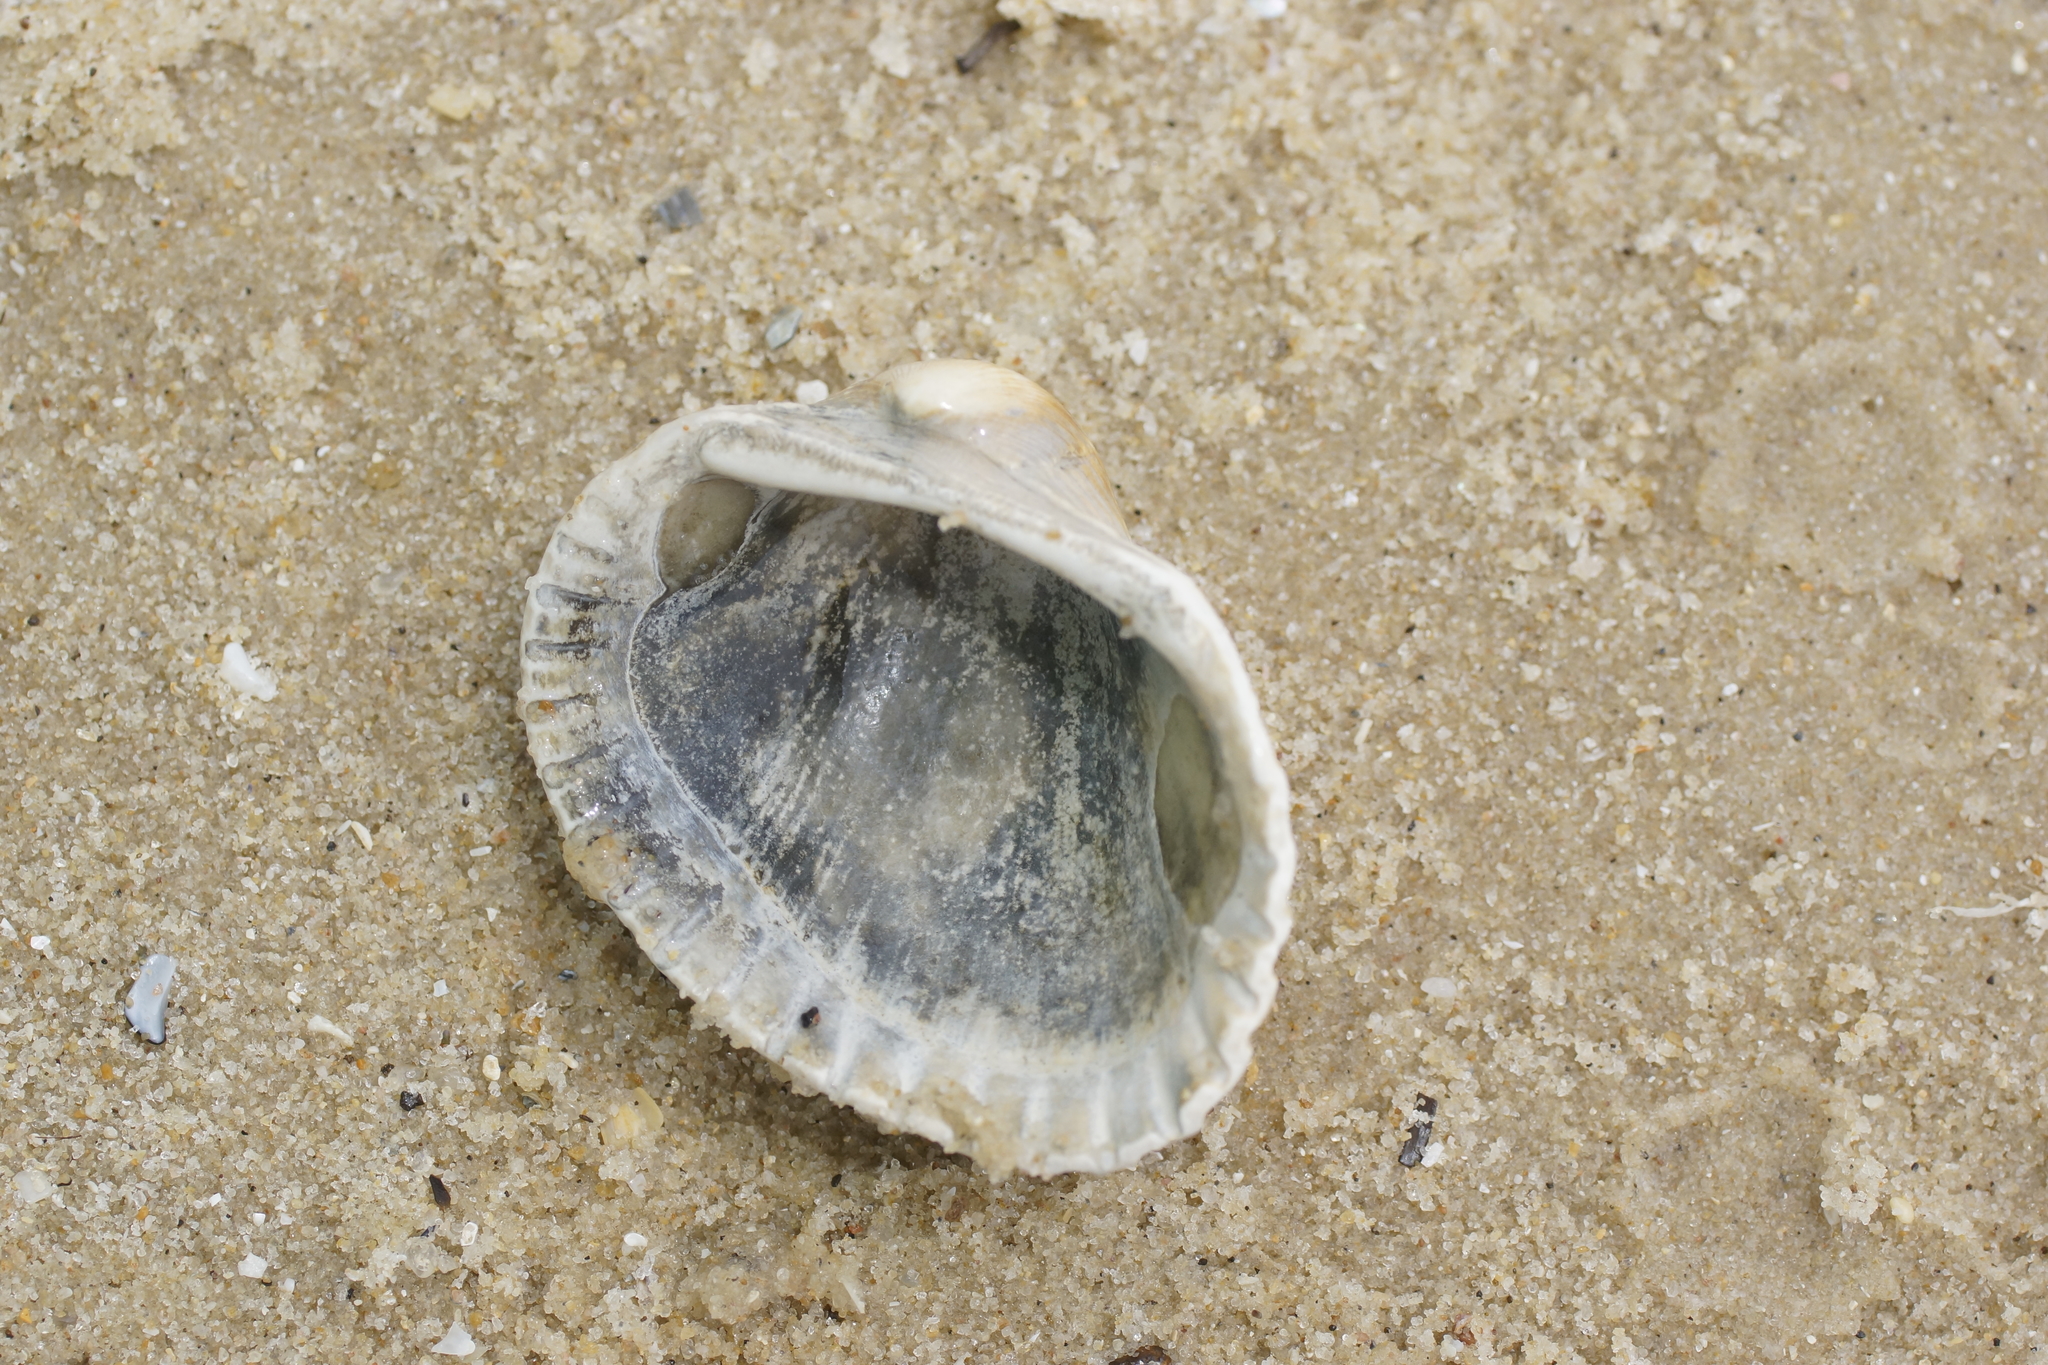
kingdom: Animalia
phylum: Mollusca
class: Bivalvia
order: Arcida
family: Arcidae
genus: Anadara
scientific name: Anadara trapezia
